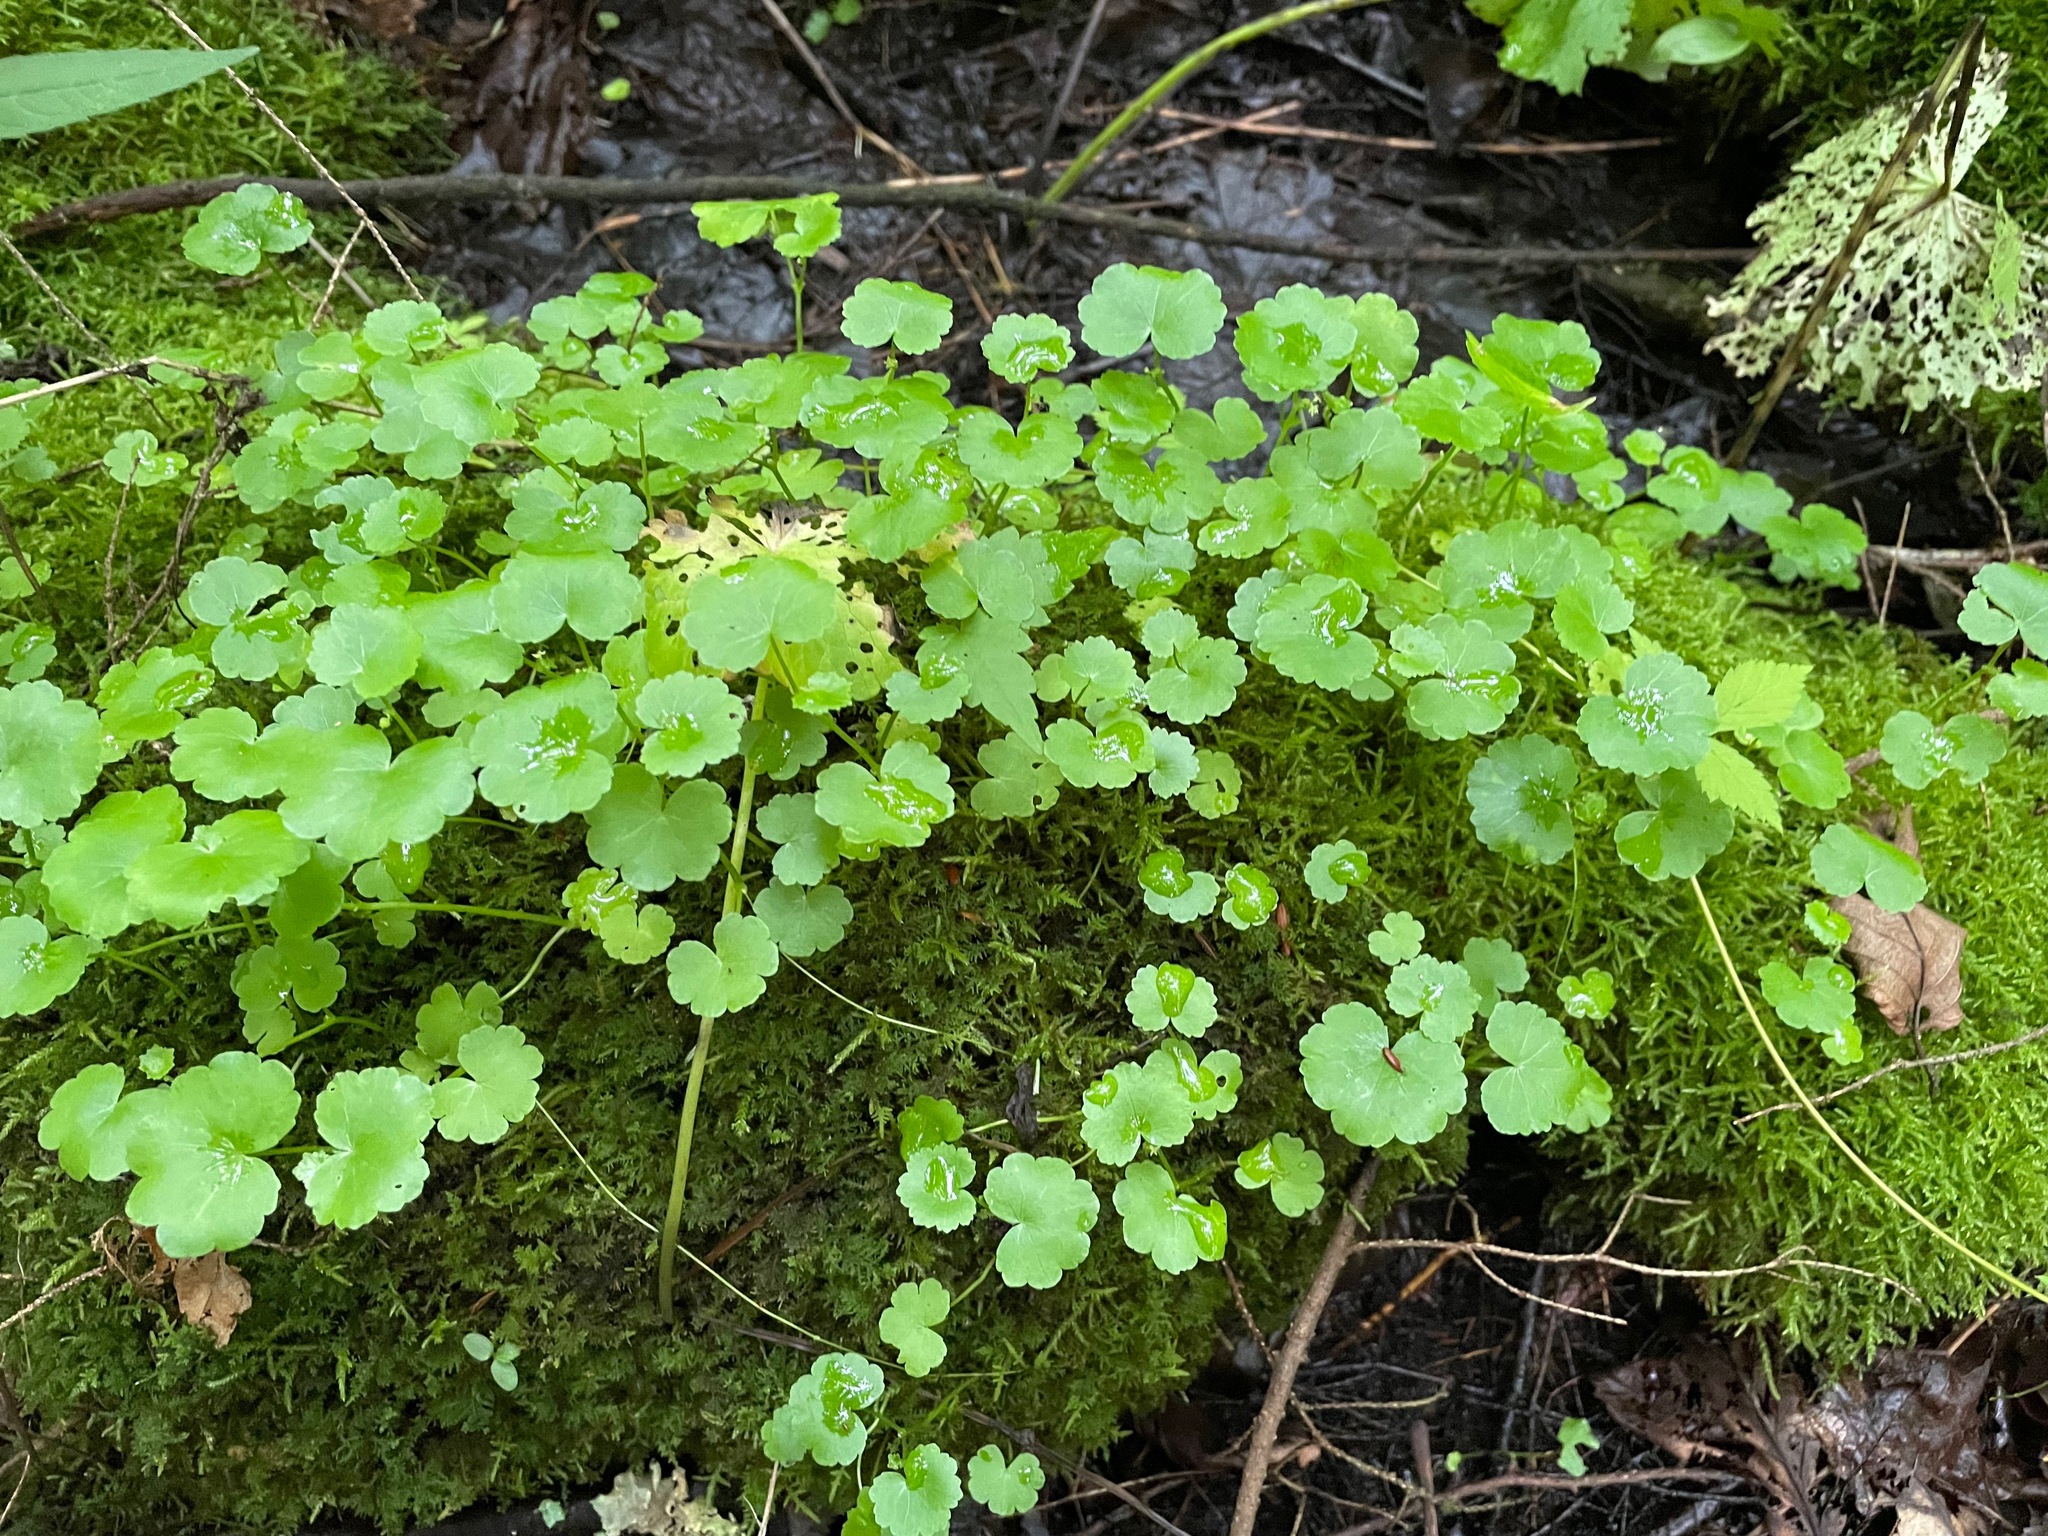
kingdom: Plantae
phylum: Tracheophyta
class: Magnoliopsida
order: Apiales
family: Araliaceae
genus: Hydrocotyle
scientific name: Hydrocotyle americana
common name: American water-pennywort
